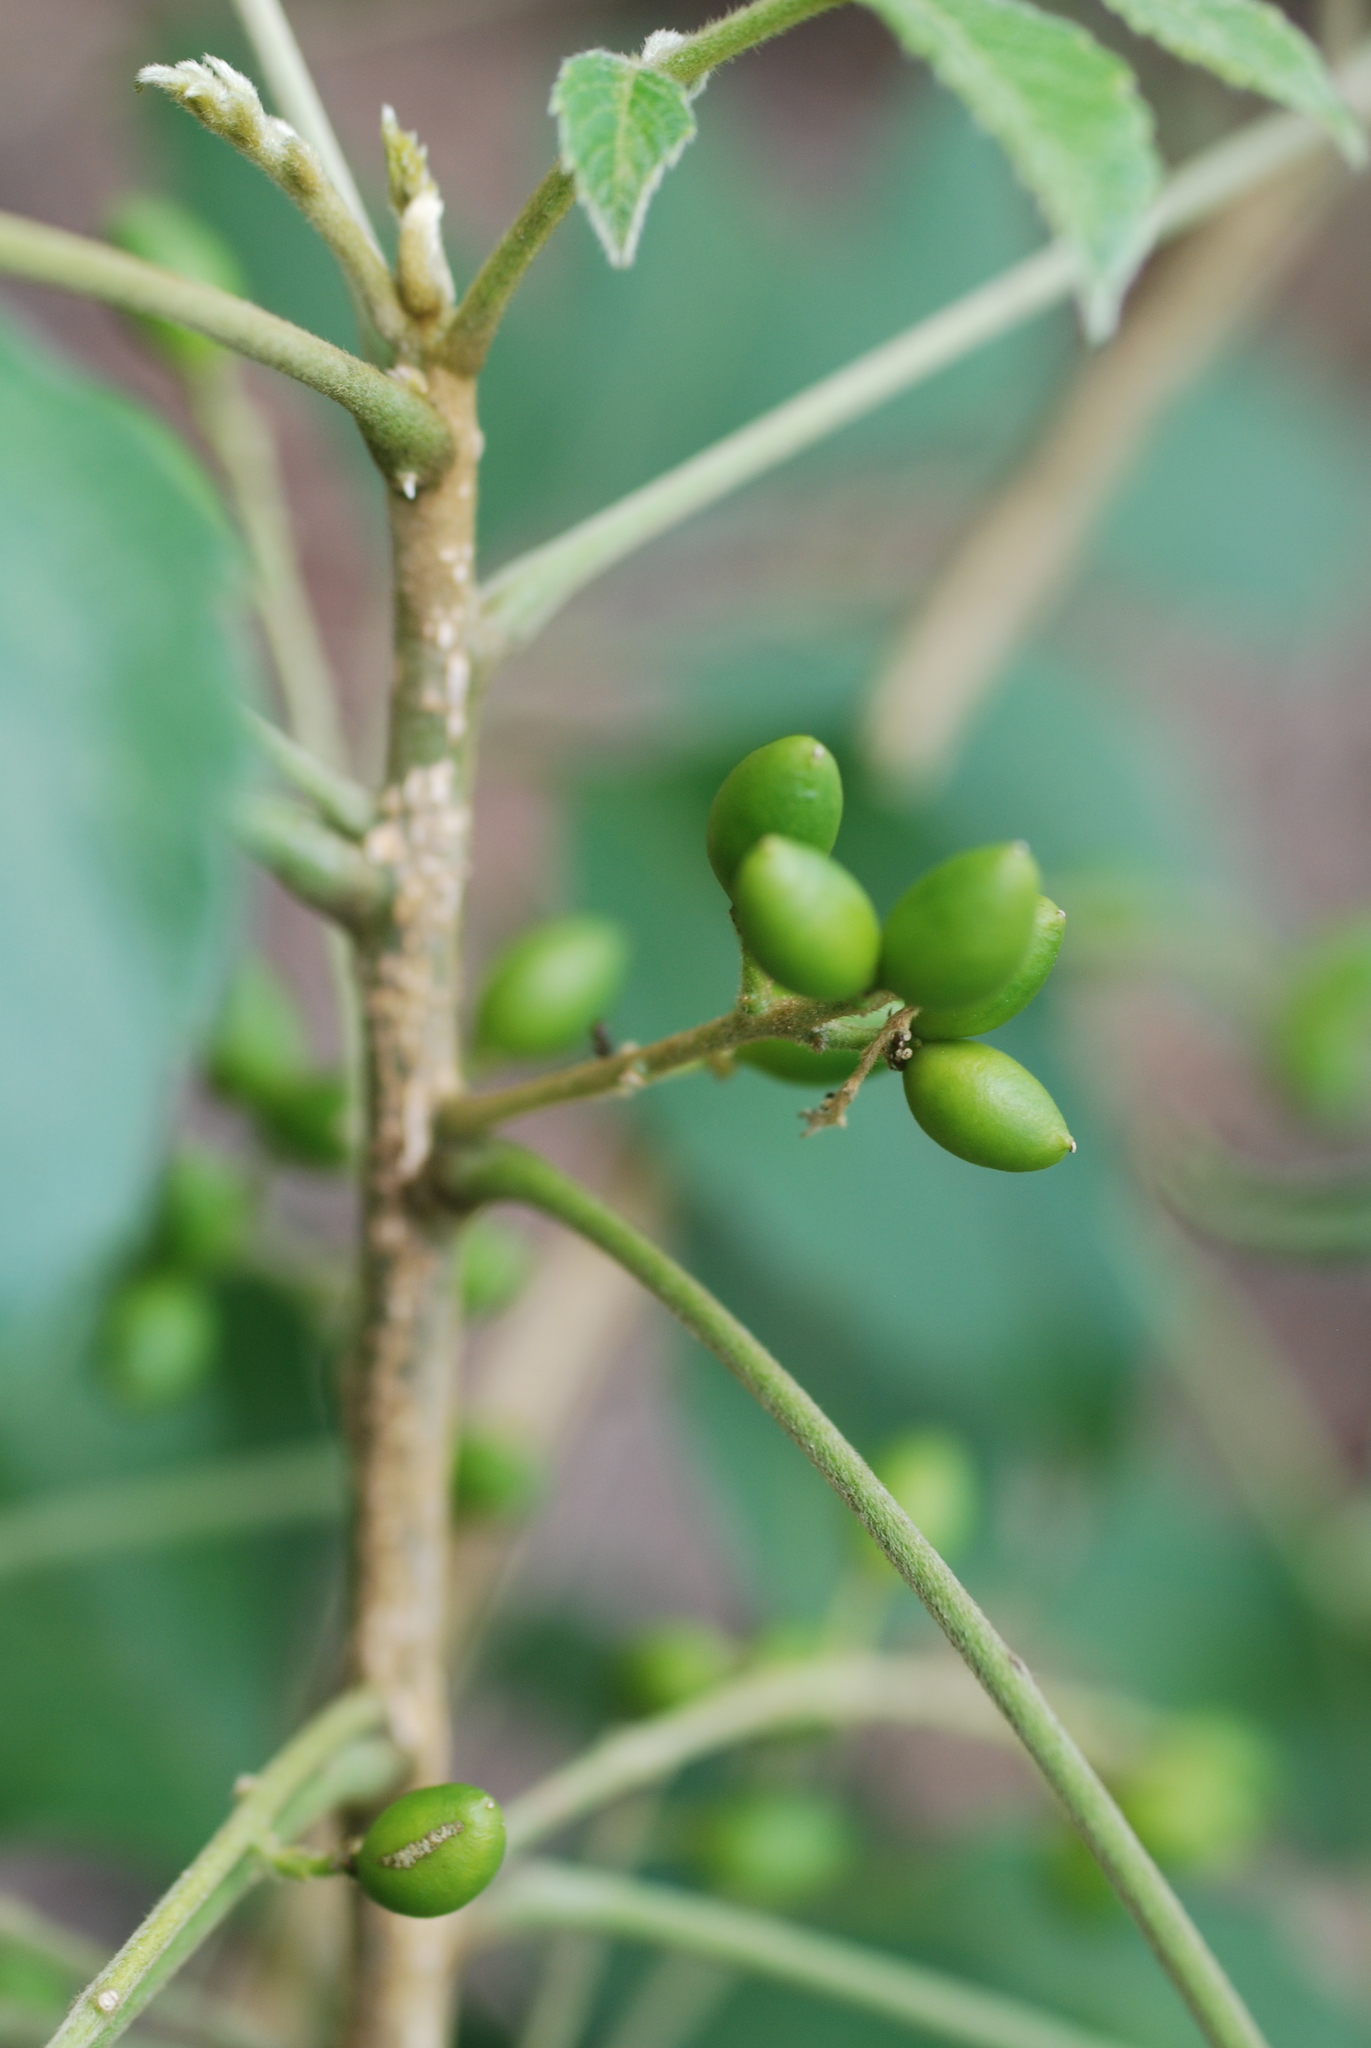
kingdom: Plantae
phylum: Tracheophyta
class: Magnoliopsida
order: Sapindales
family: Simaroubaceae
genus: Brucea
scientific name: Brucea javanica
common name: Macassar kernels
